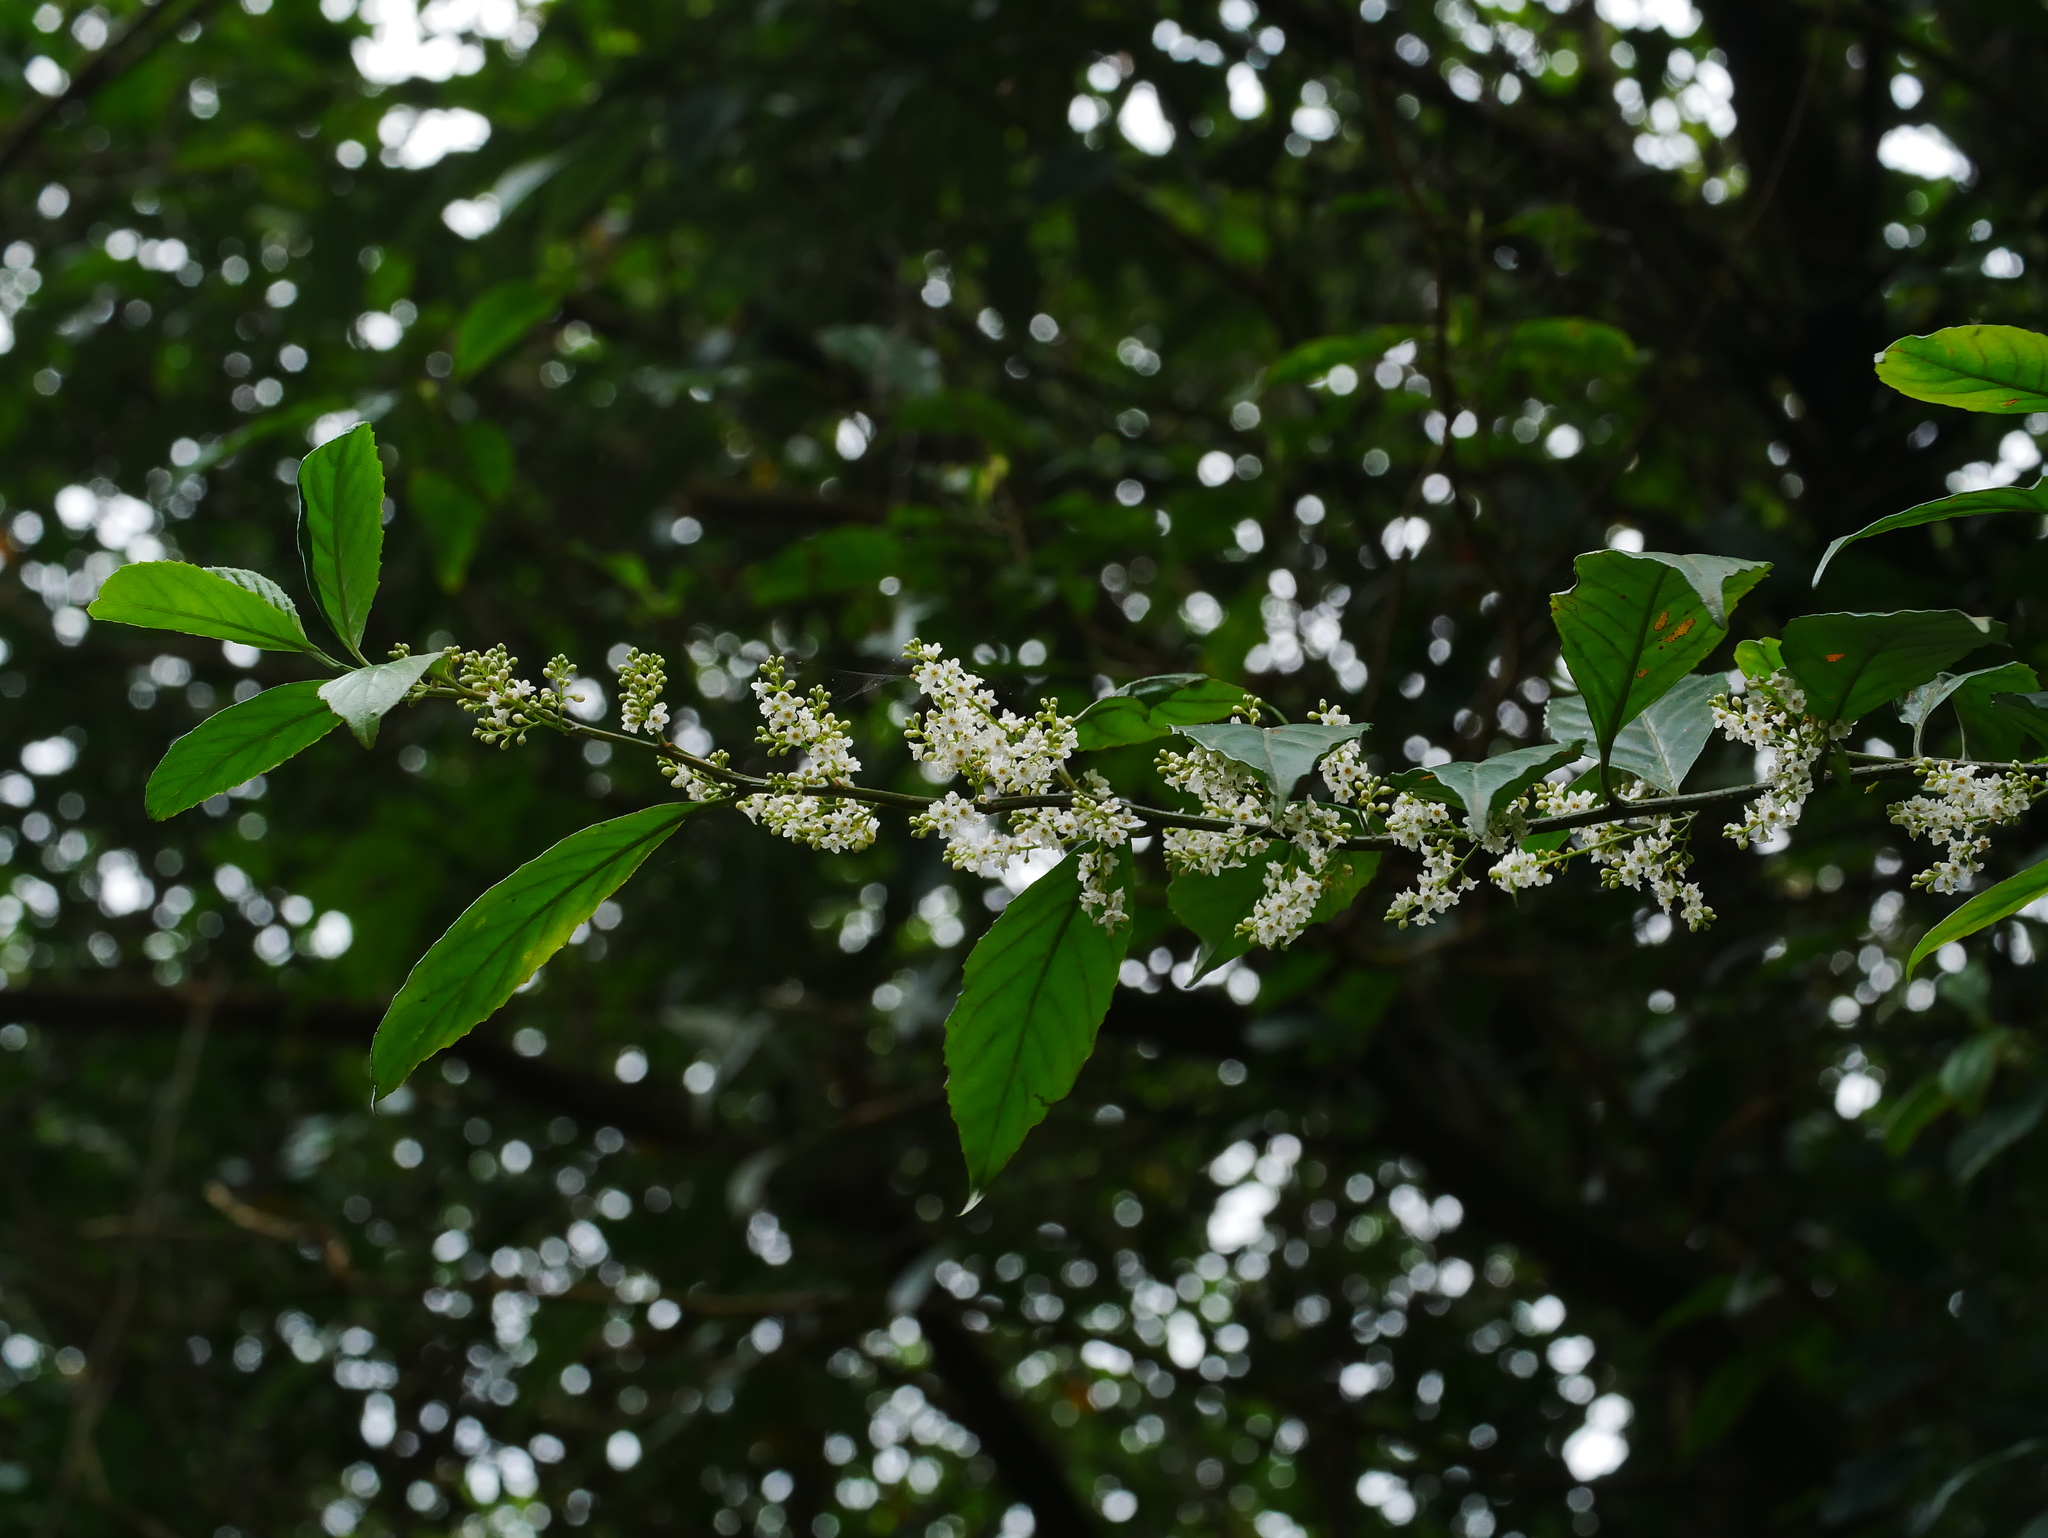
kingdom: Plantae
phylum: Tracheophyta
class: Magnoliopsida
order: Ericales
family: Primulaceae
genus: Maesa
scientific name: Maesa perlaria
